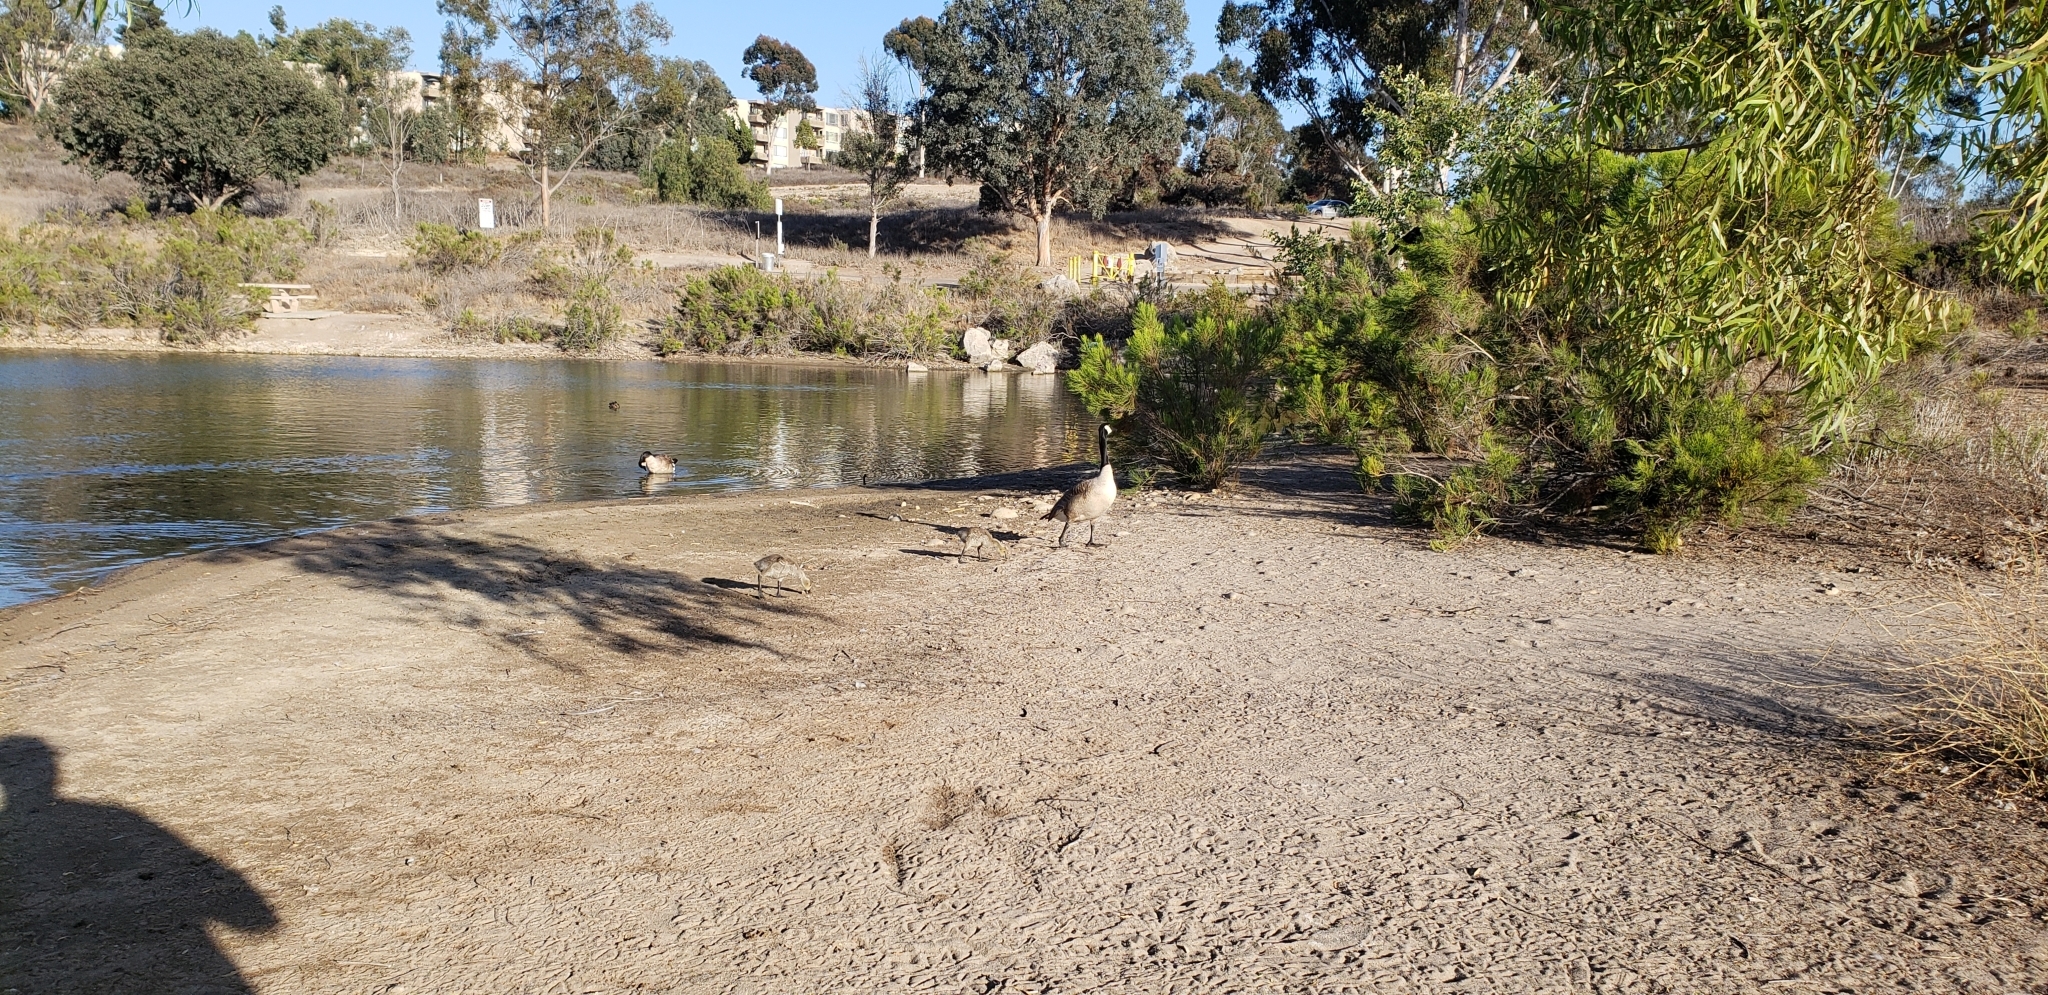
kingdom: Animalia
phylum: Chordata
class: Aves
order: Anseriformes
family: Anatidae
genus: Branta
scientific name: Branta canadensis
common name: Canada goose
